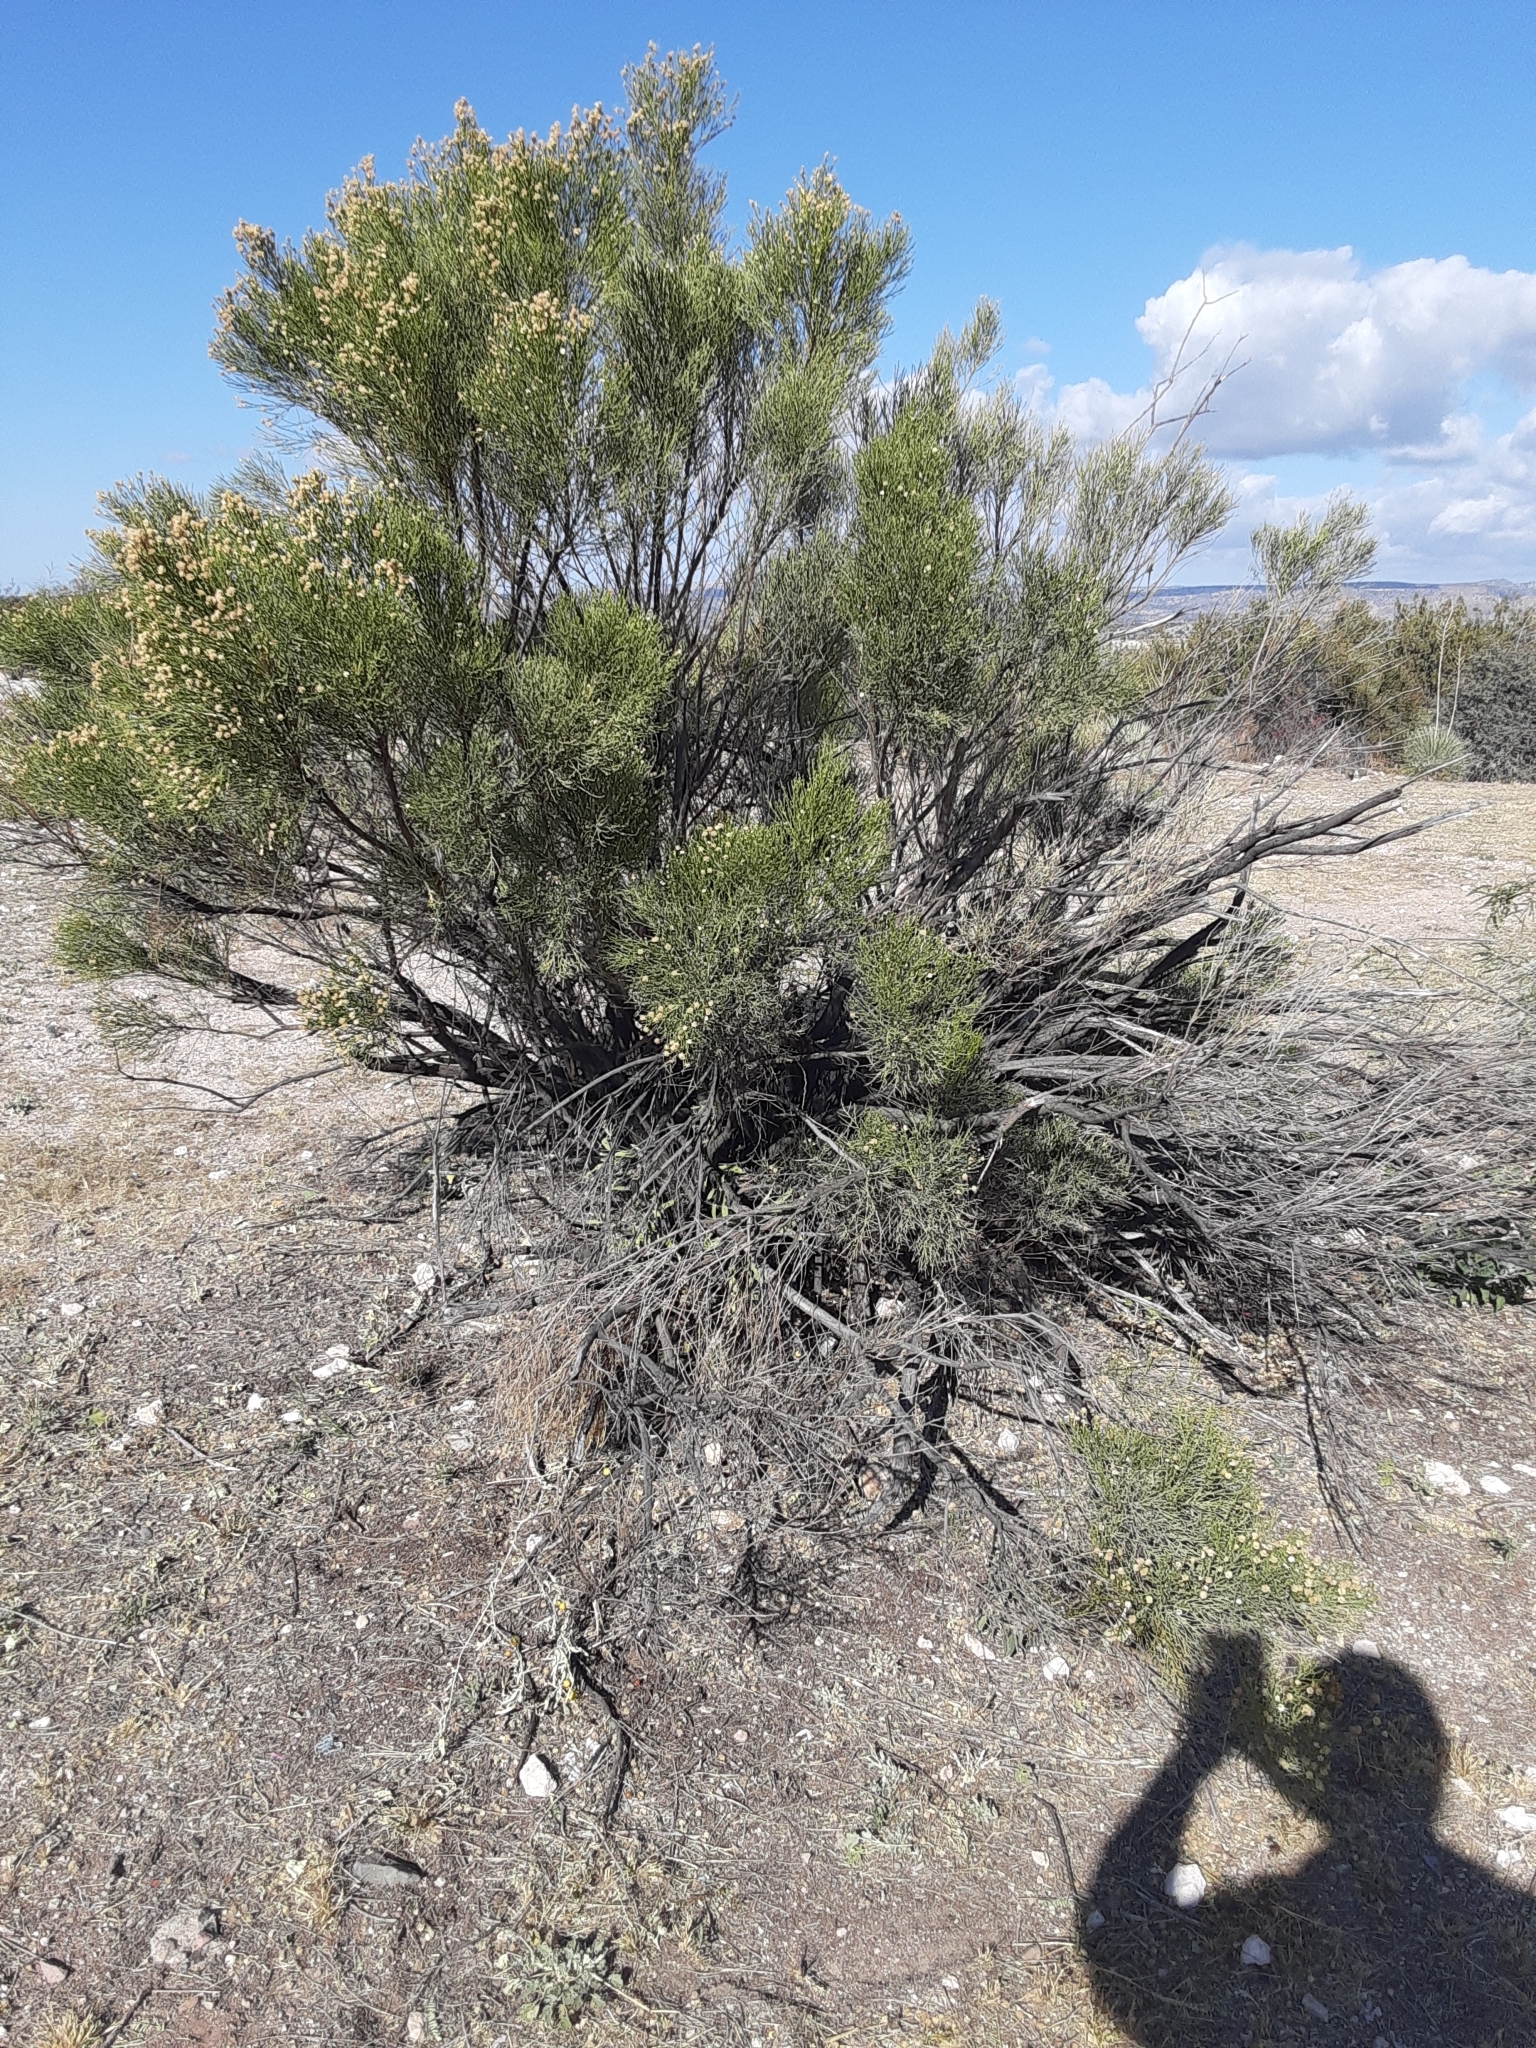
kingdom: Plantae
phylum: Tracheophyta
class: Magnoliopsida
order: Asterales
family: Asteraceae
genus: Baccharis
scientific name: Baccharis sarothroides
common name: Desert-broom
